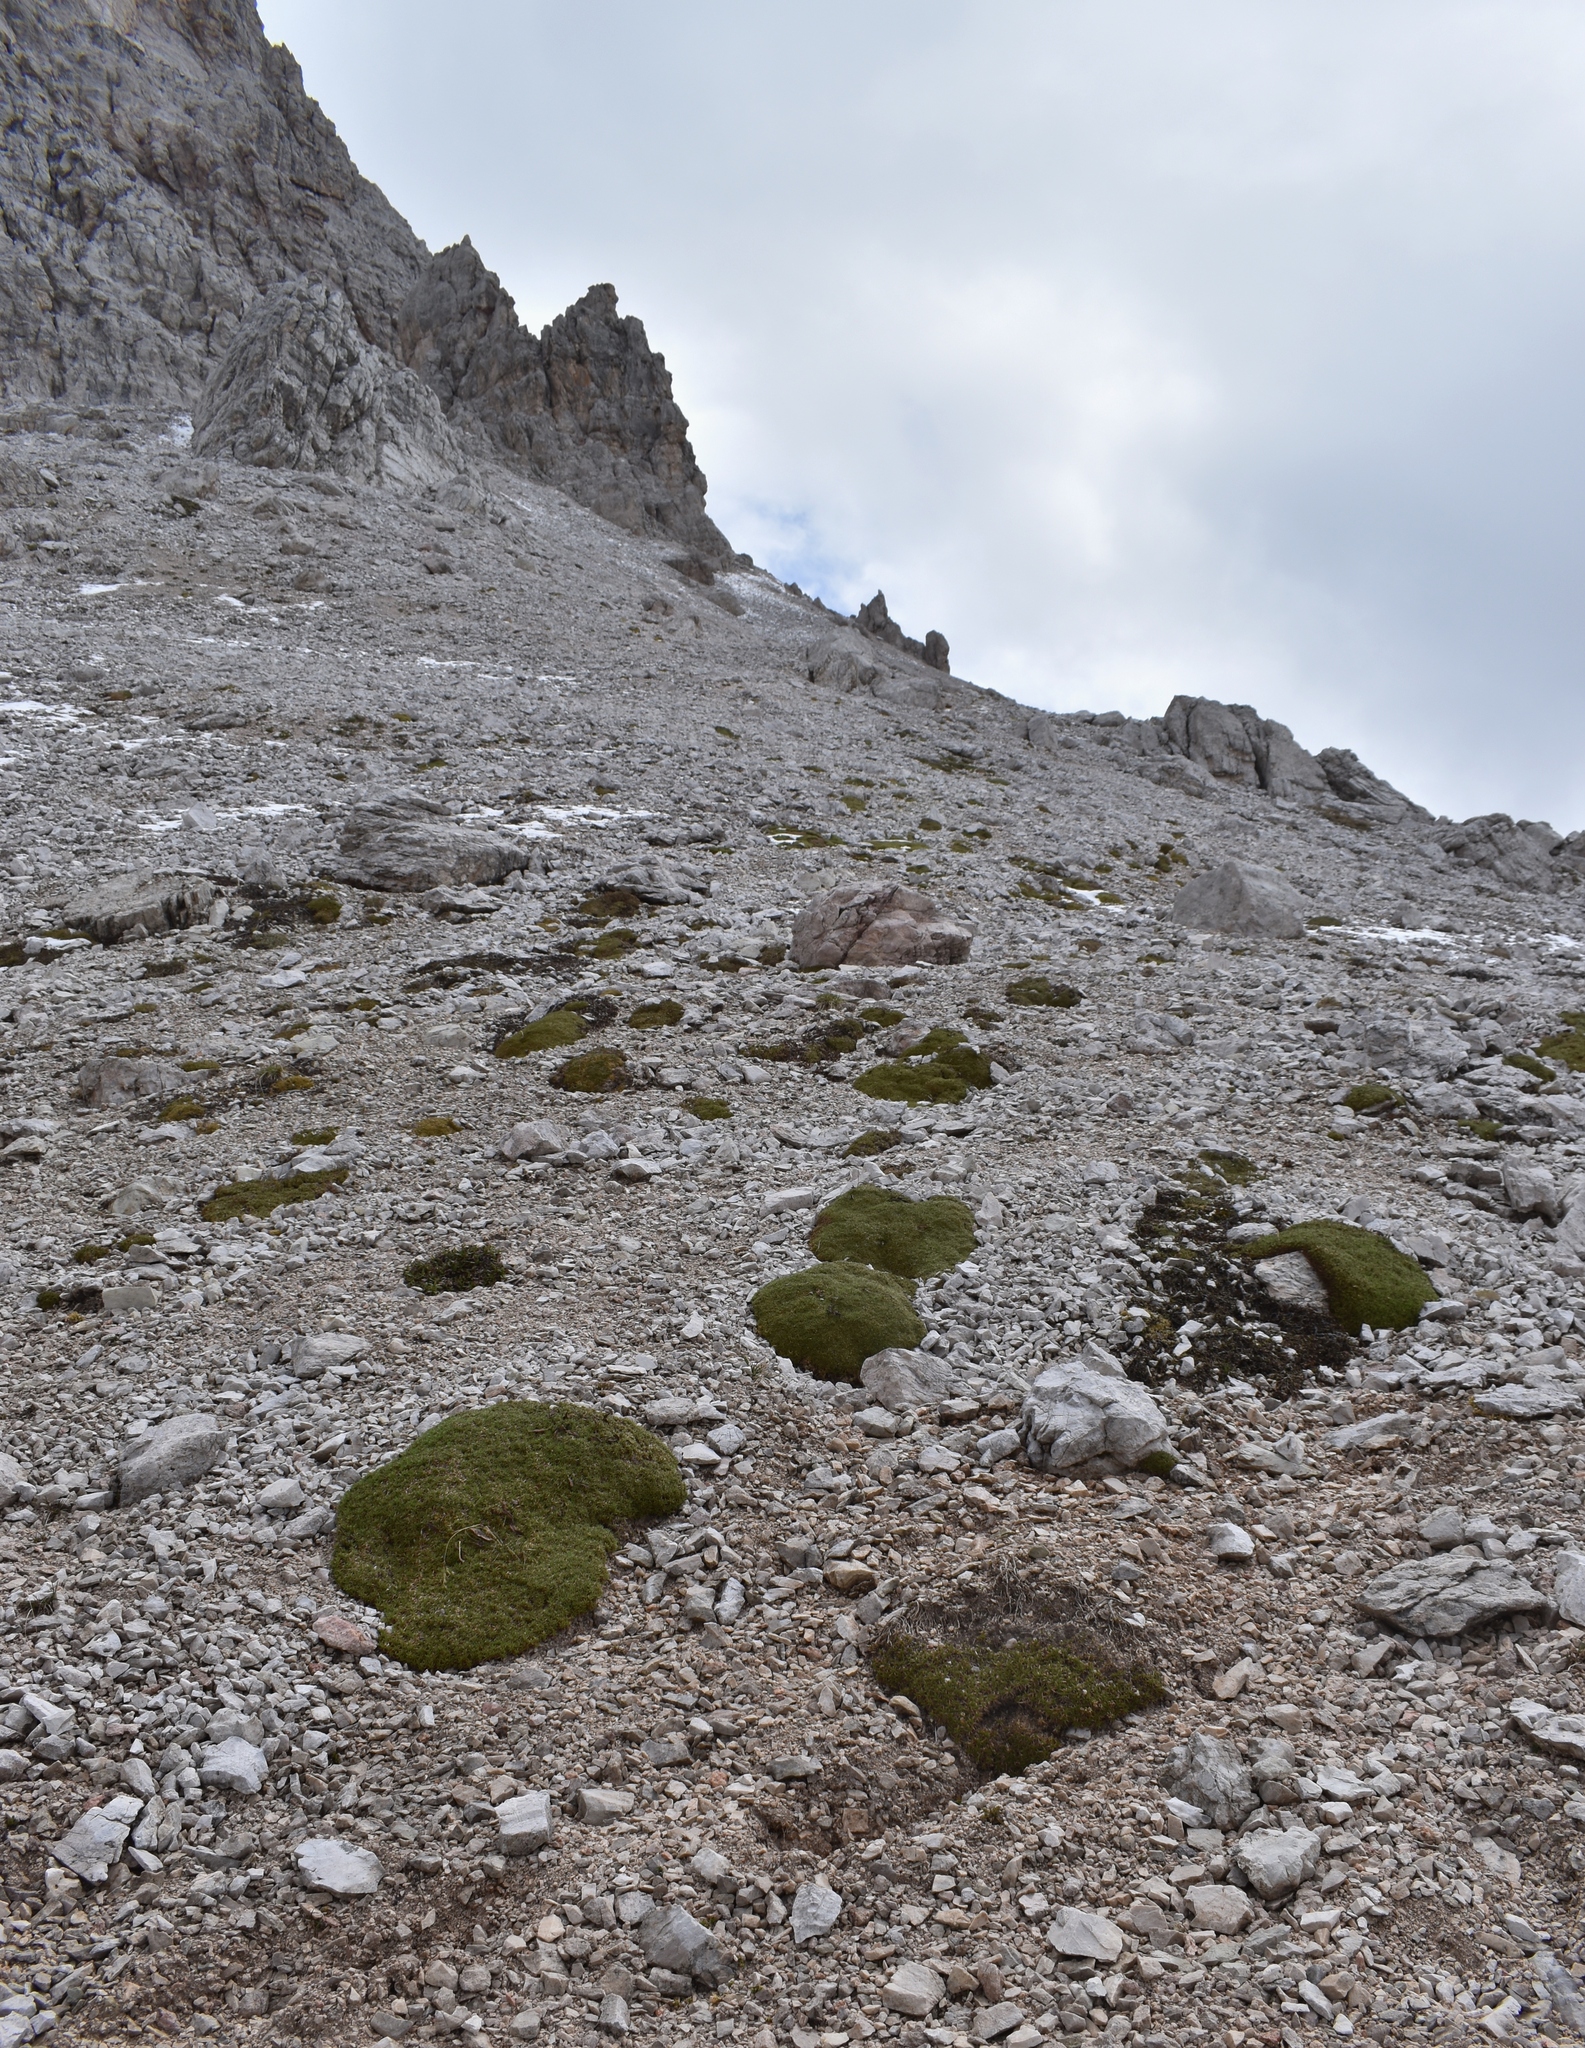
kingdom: Plantae
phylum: Tracheophyta
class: Magnoliopsida
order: Saxifragales
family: Saxifragaceae
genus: Saxifraga
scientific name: Saxifraga oppositifolia
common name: Purple saxifrage
